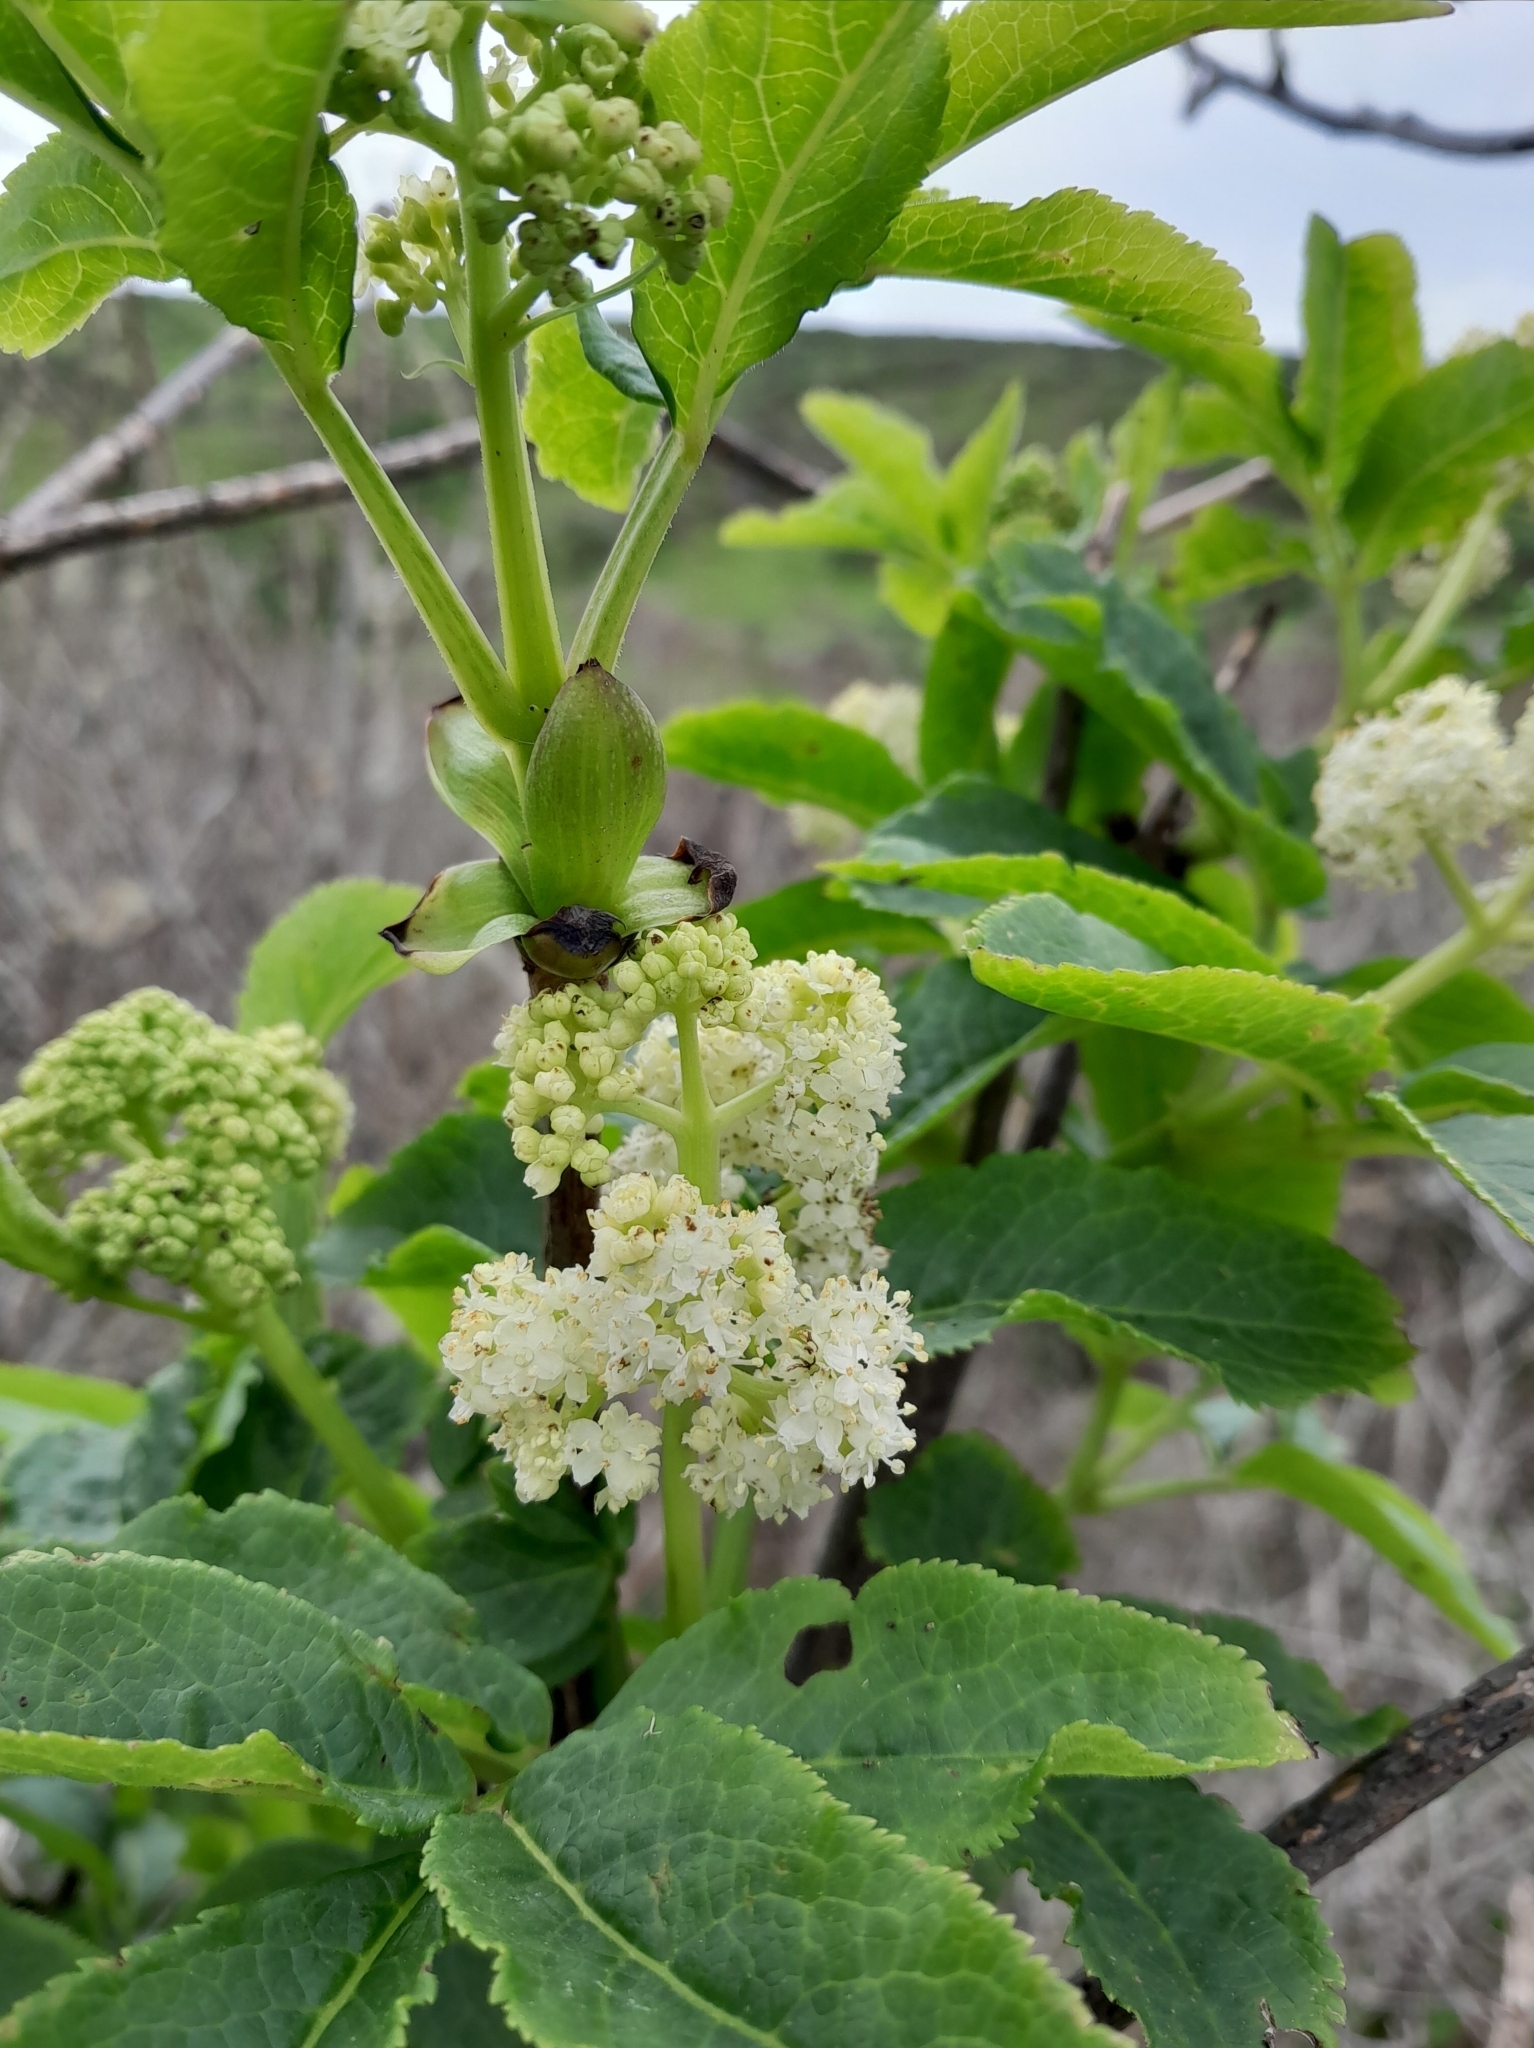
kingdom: Plantae
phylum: Tracheophyta
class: Magnoliopsida
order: Dipsacales
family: Viburnaceae
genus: Sambucus
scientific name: Sambucus racemosa
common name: Red-berried elder
